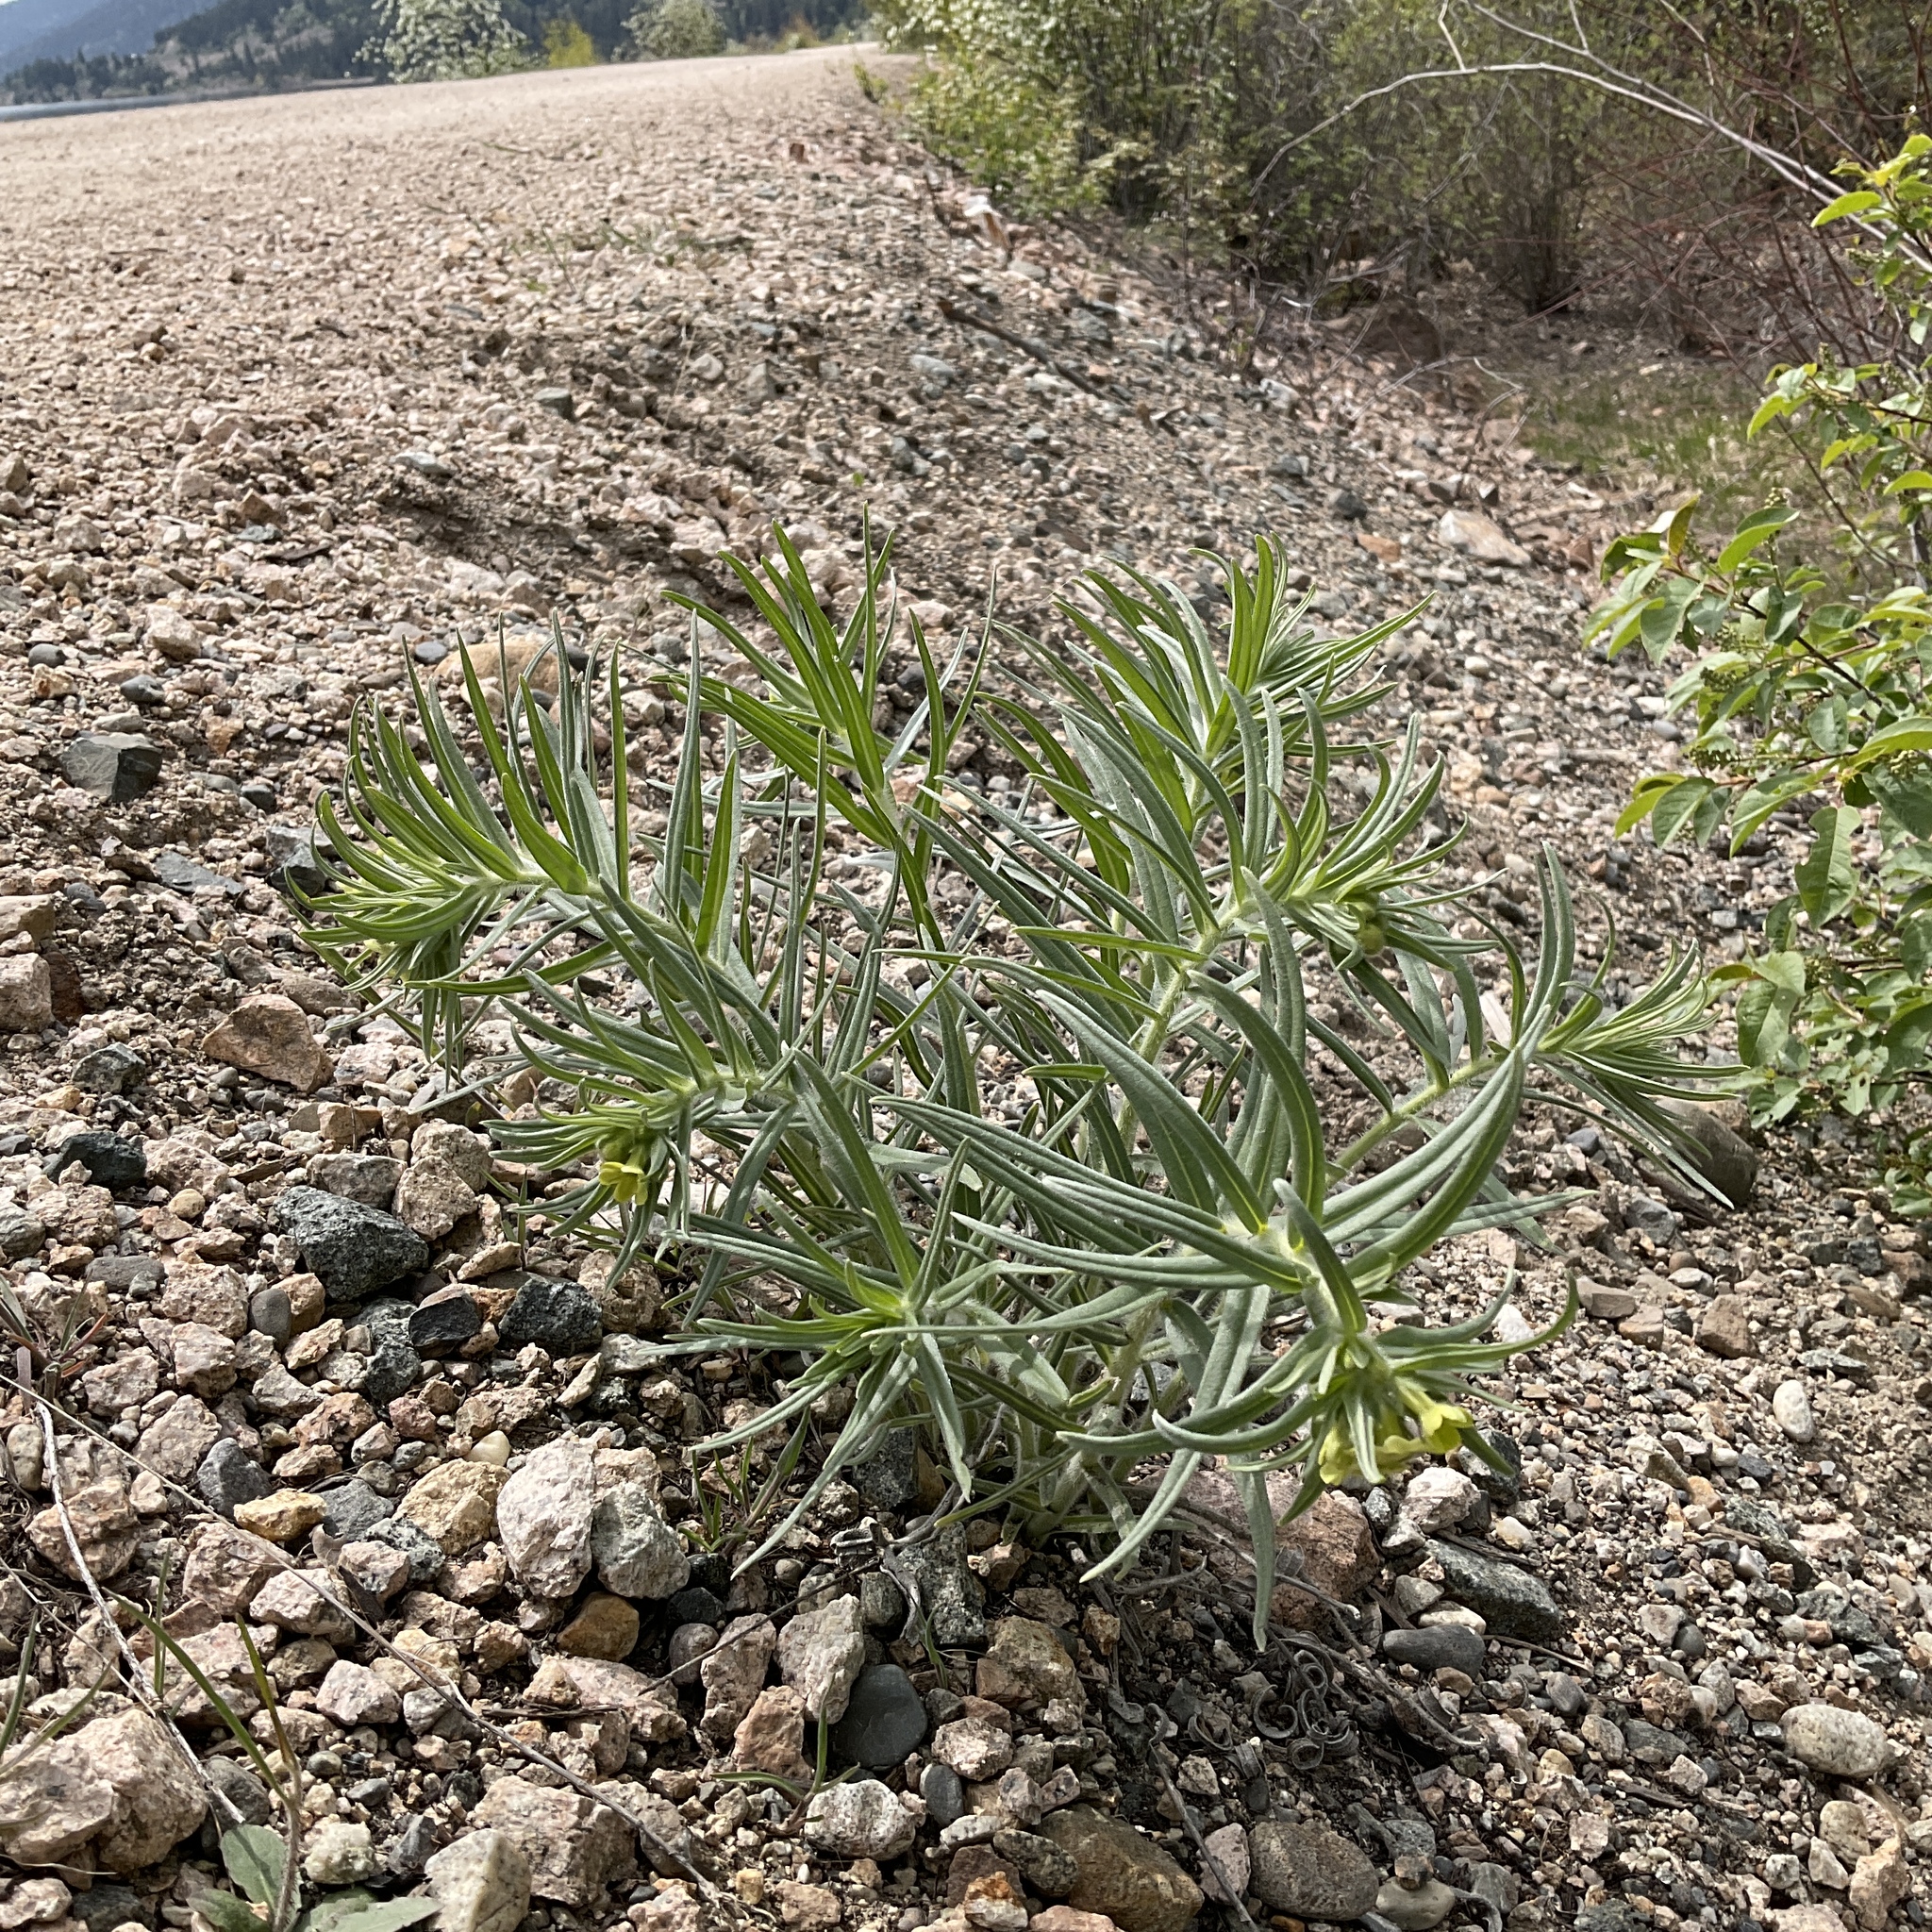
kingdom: Plantae
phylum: Tracheophyta
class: Magnoliopsida
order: Boraginales
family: Boraginaceae
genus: Lithospermum
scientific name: Lithospermum ruderale
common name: Western gromwell
